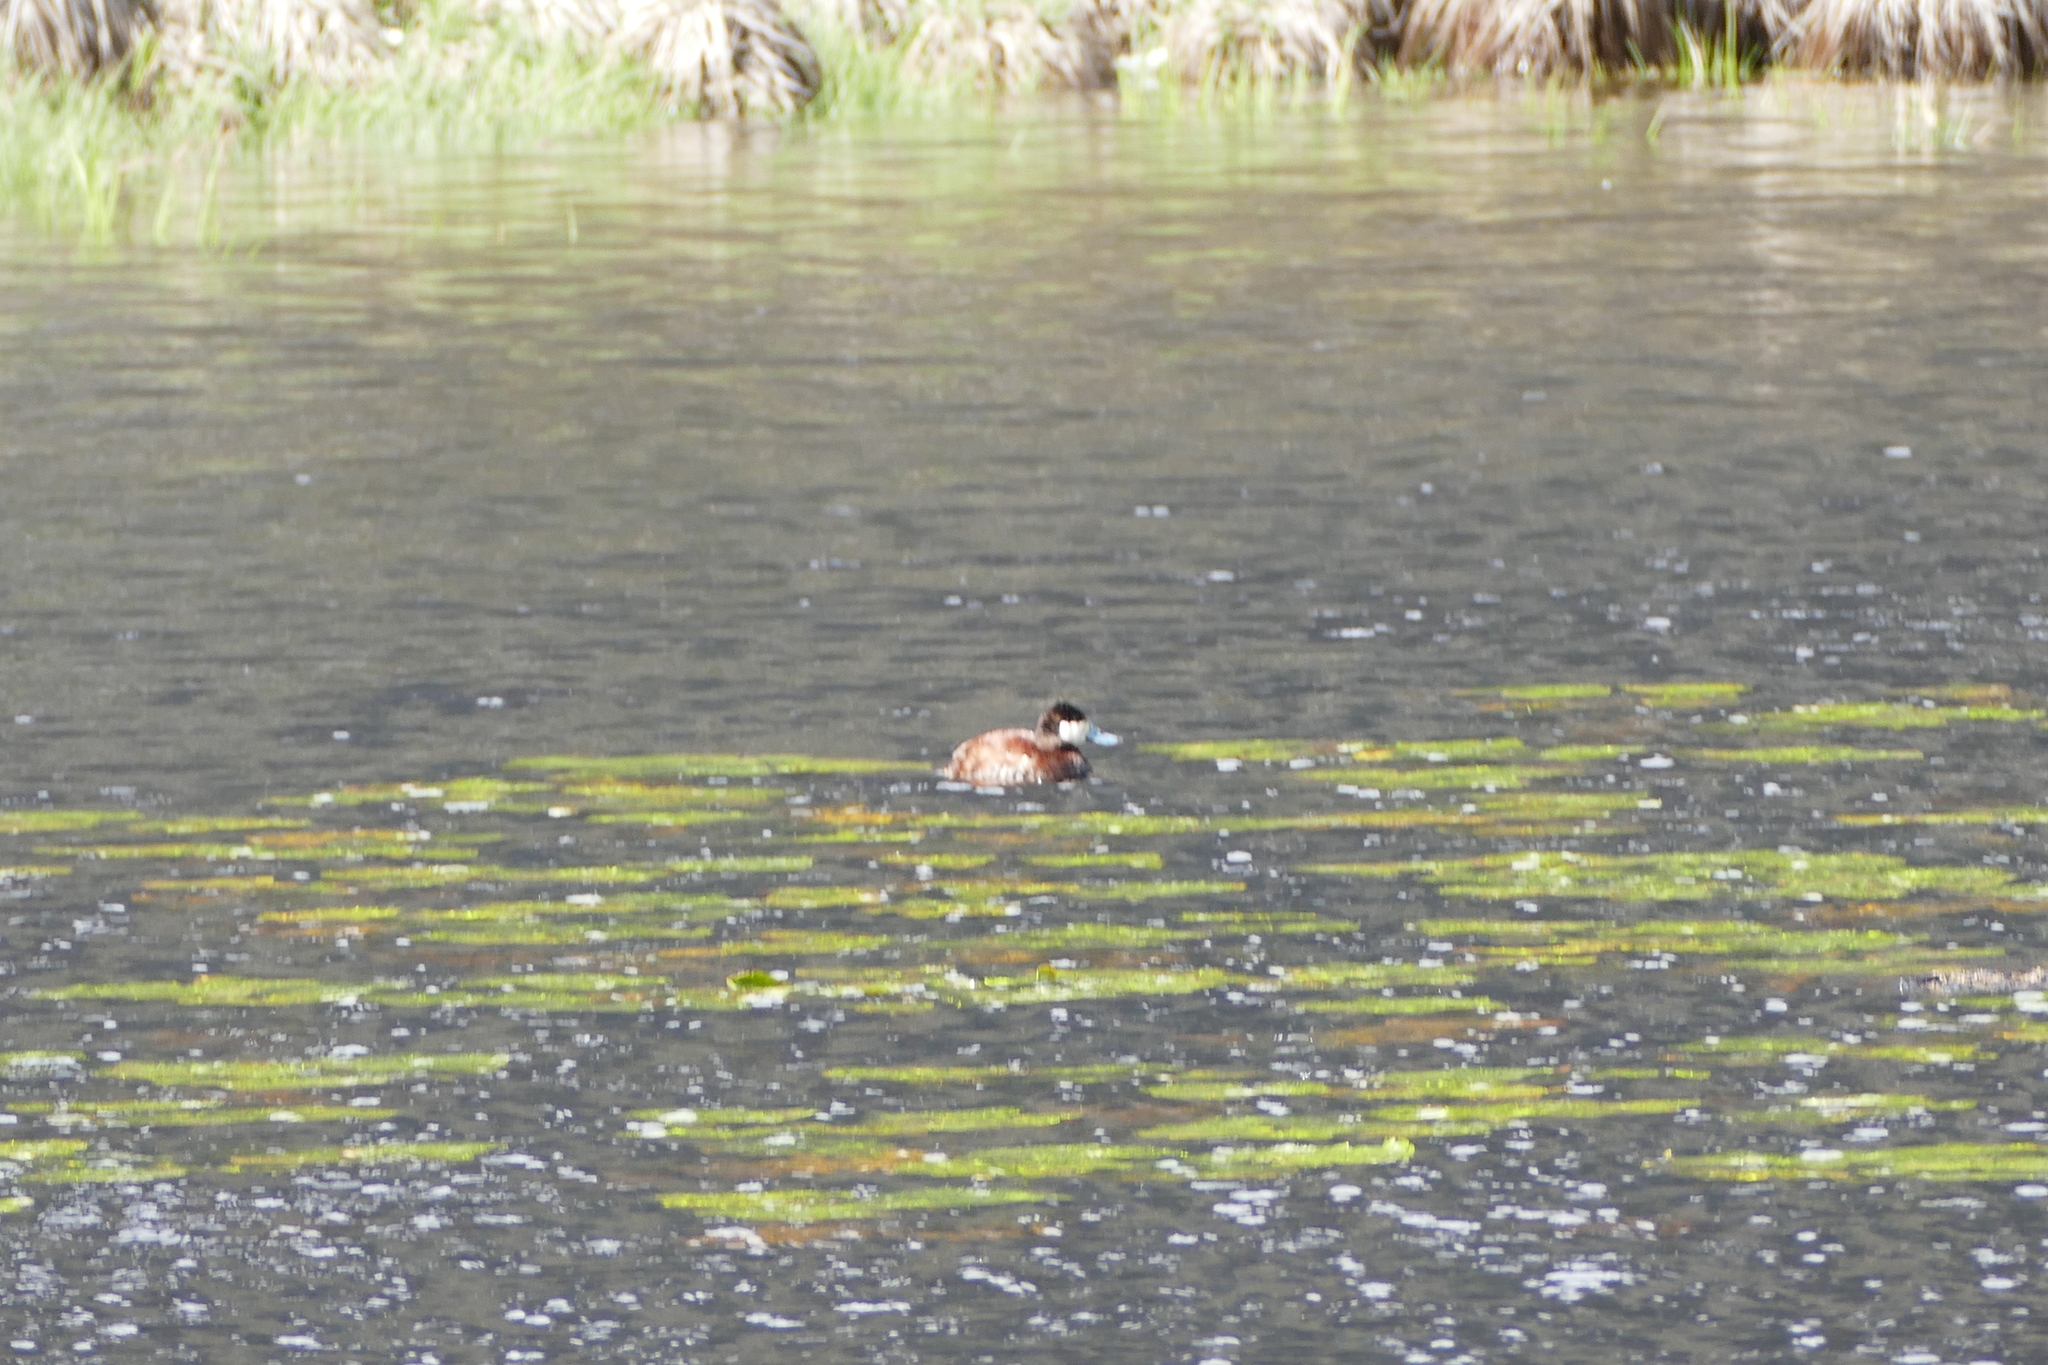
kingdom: Animalia
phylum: Chordata
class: Aves
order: Anseriformes
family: Anatidae
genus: Oxyura
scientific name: Oxyura jamaicensis
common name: Ruddy duck
